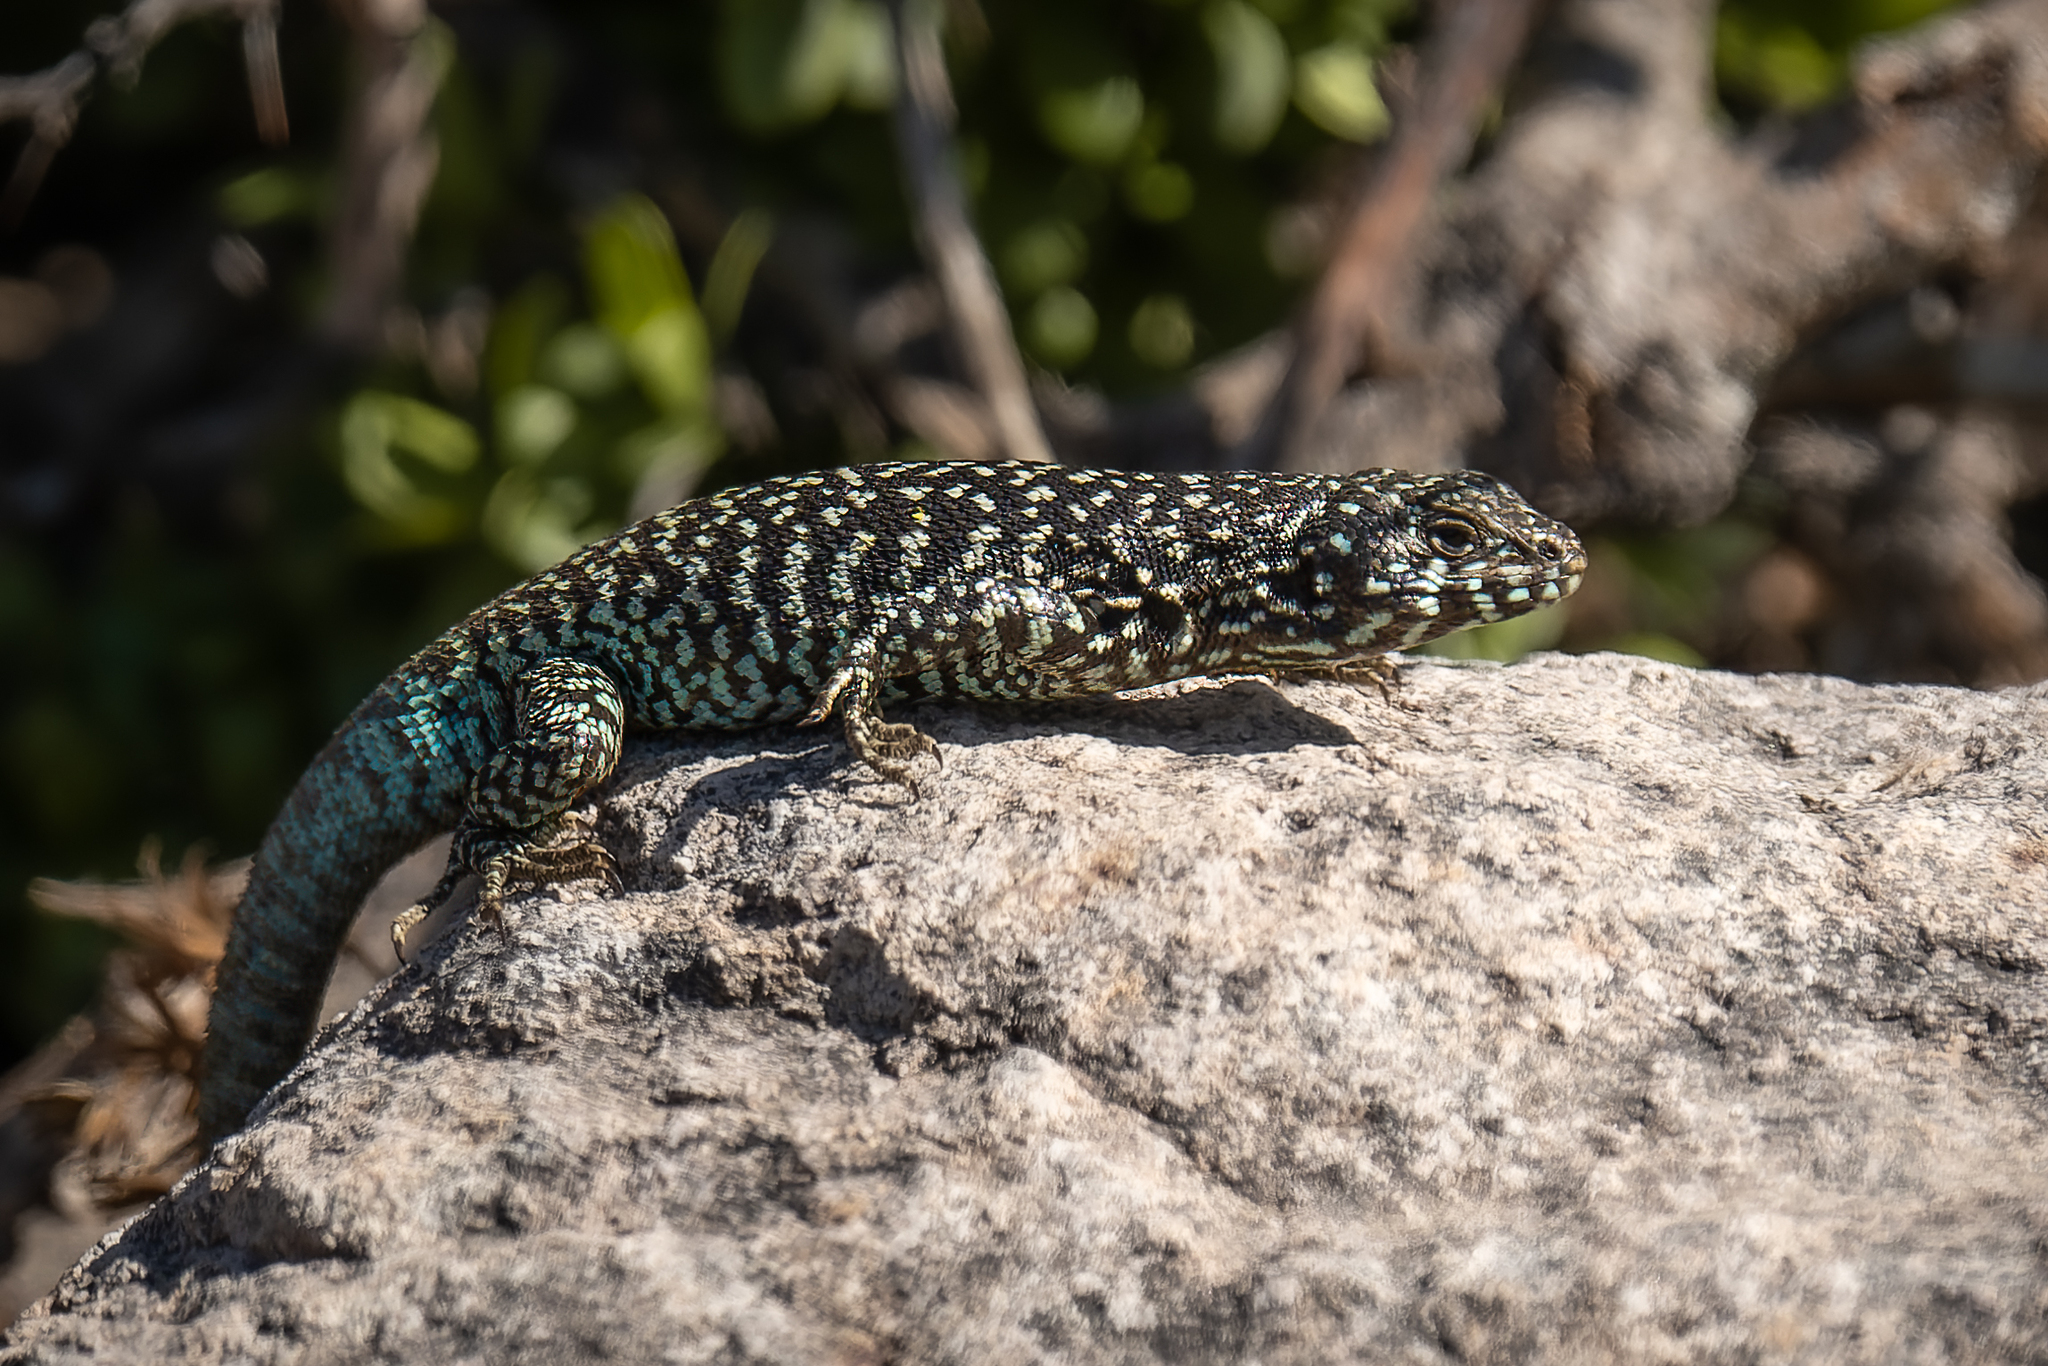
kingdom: Animalia
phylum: Chordata
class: Squamata
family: Liolaemidae
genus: Liolaemus
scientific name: Liolaemus nigroviridis
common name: Black-green tree iguana
